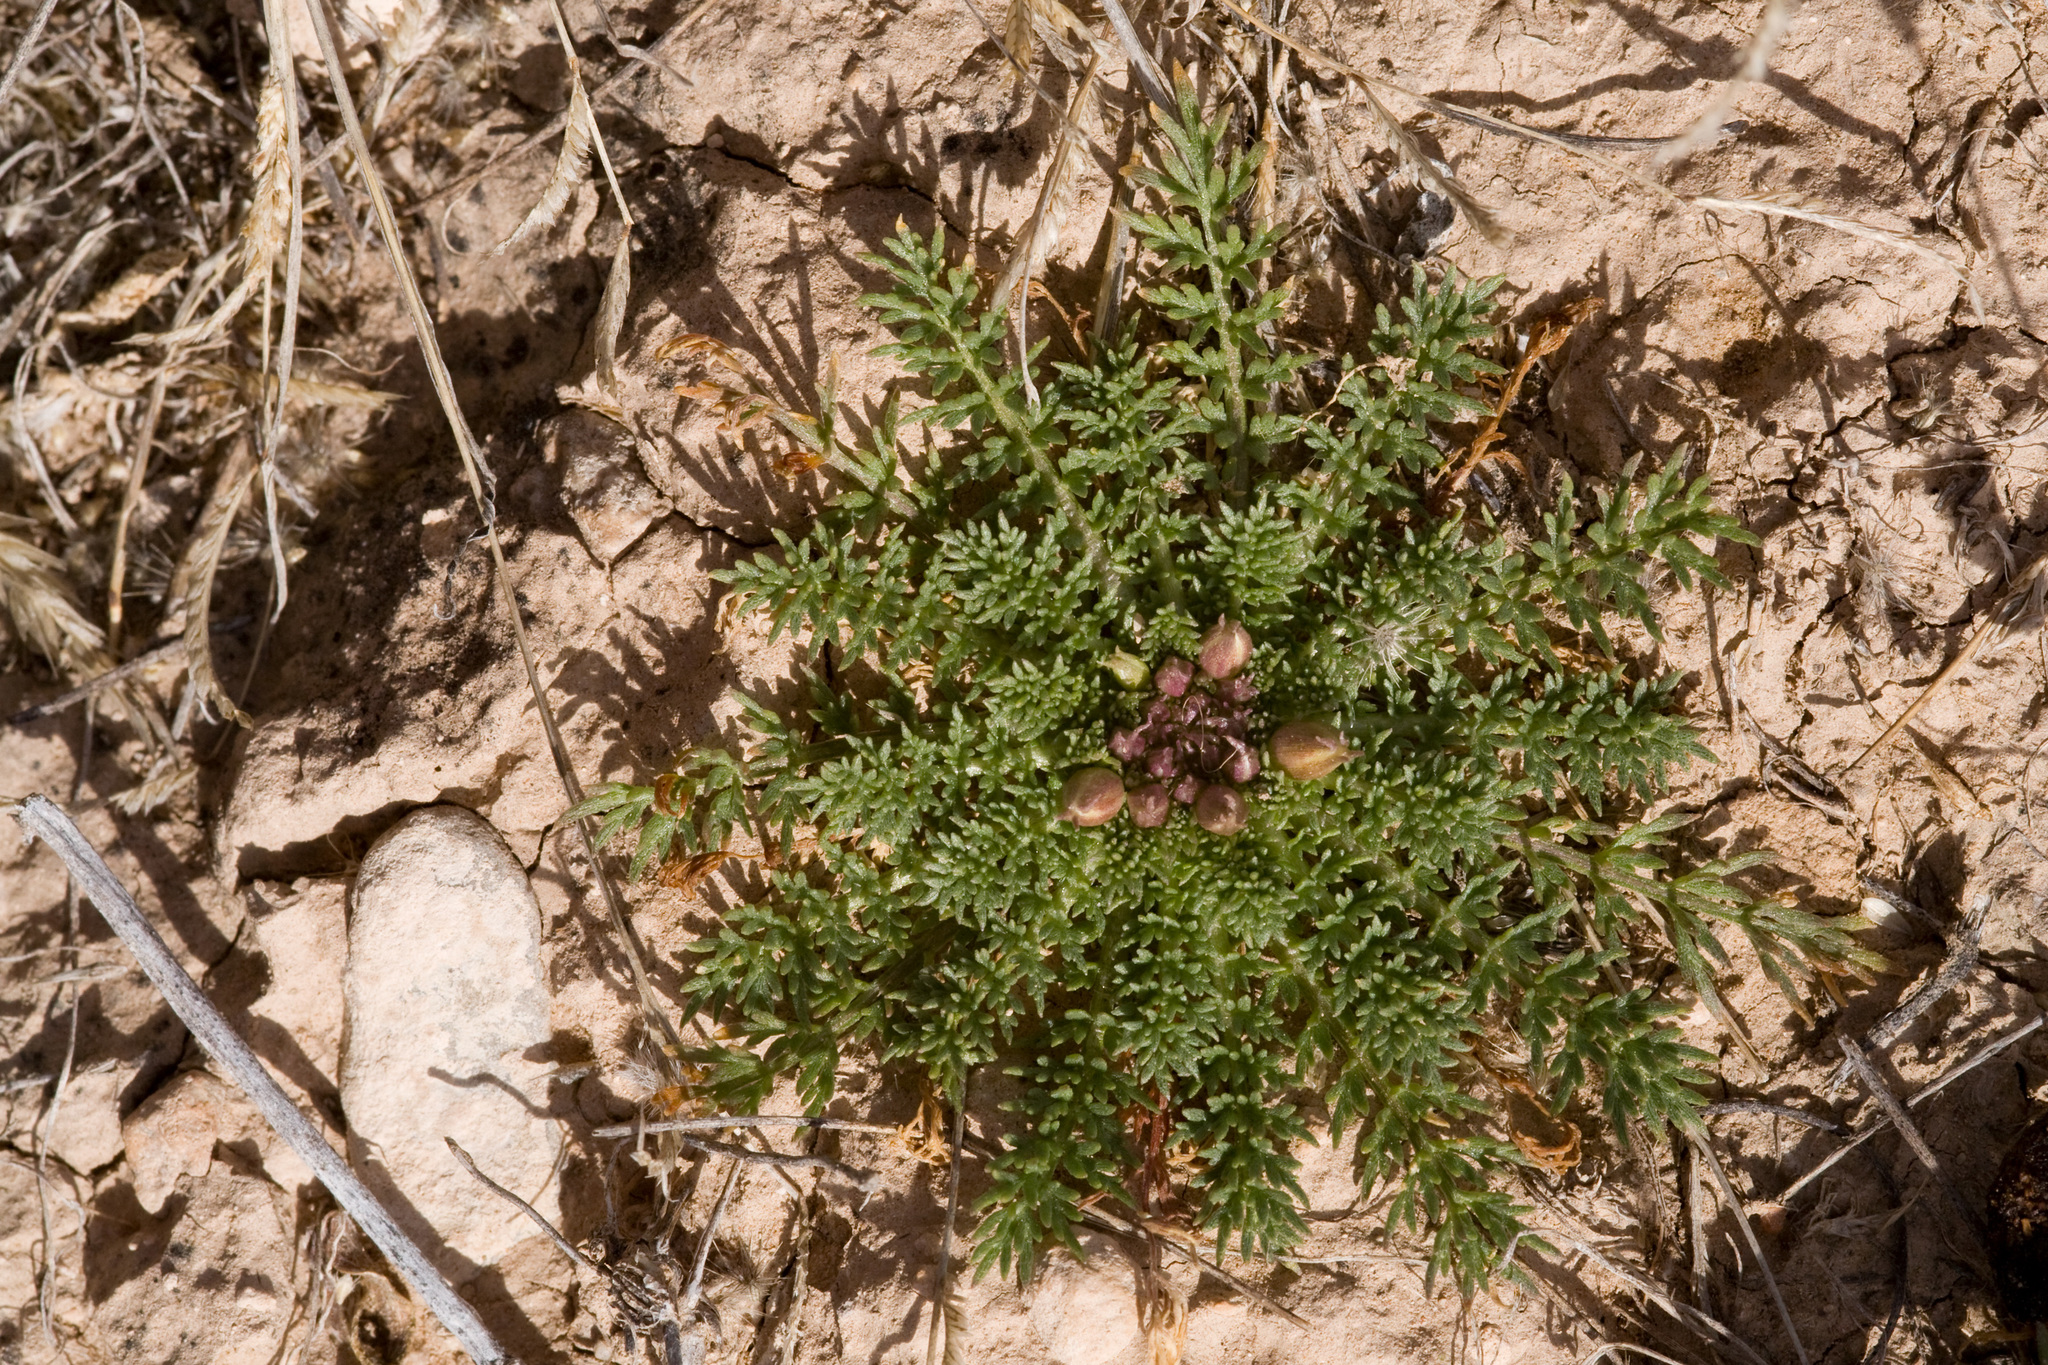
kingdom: Plantae
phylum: Tracheophyta
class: Magnoliopsida
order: Brassicales
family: Brassicaceae
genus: Selenia
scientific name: Selenia dissecta
